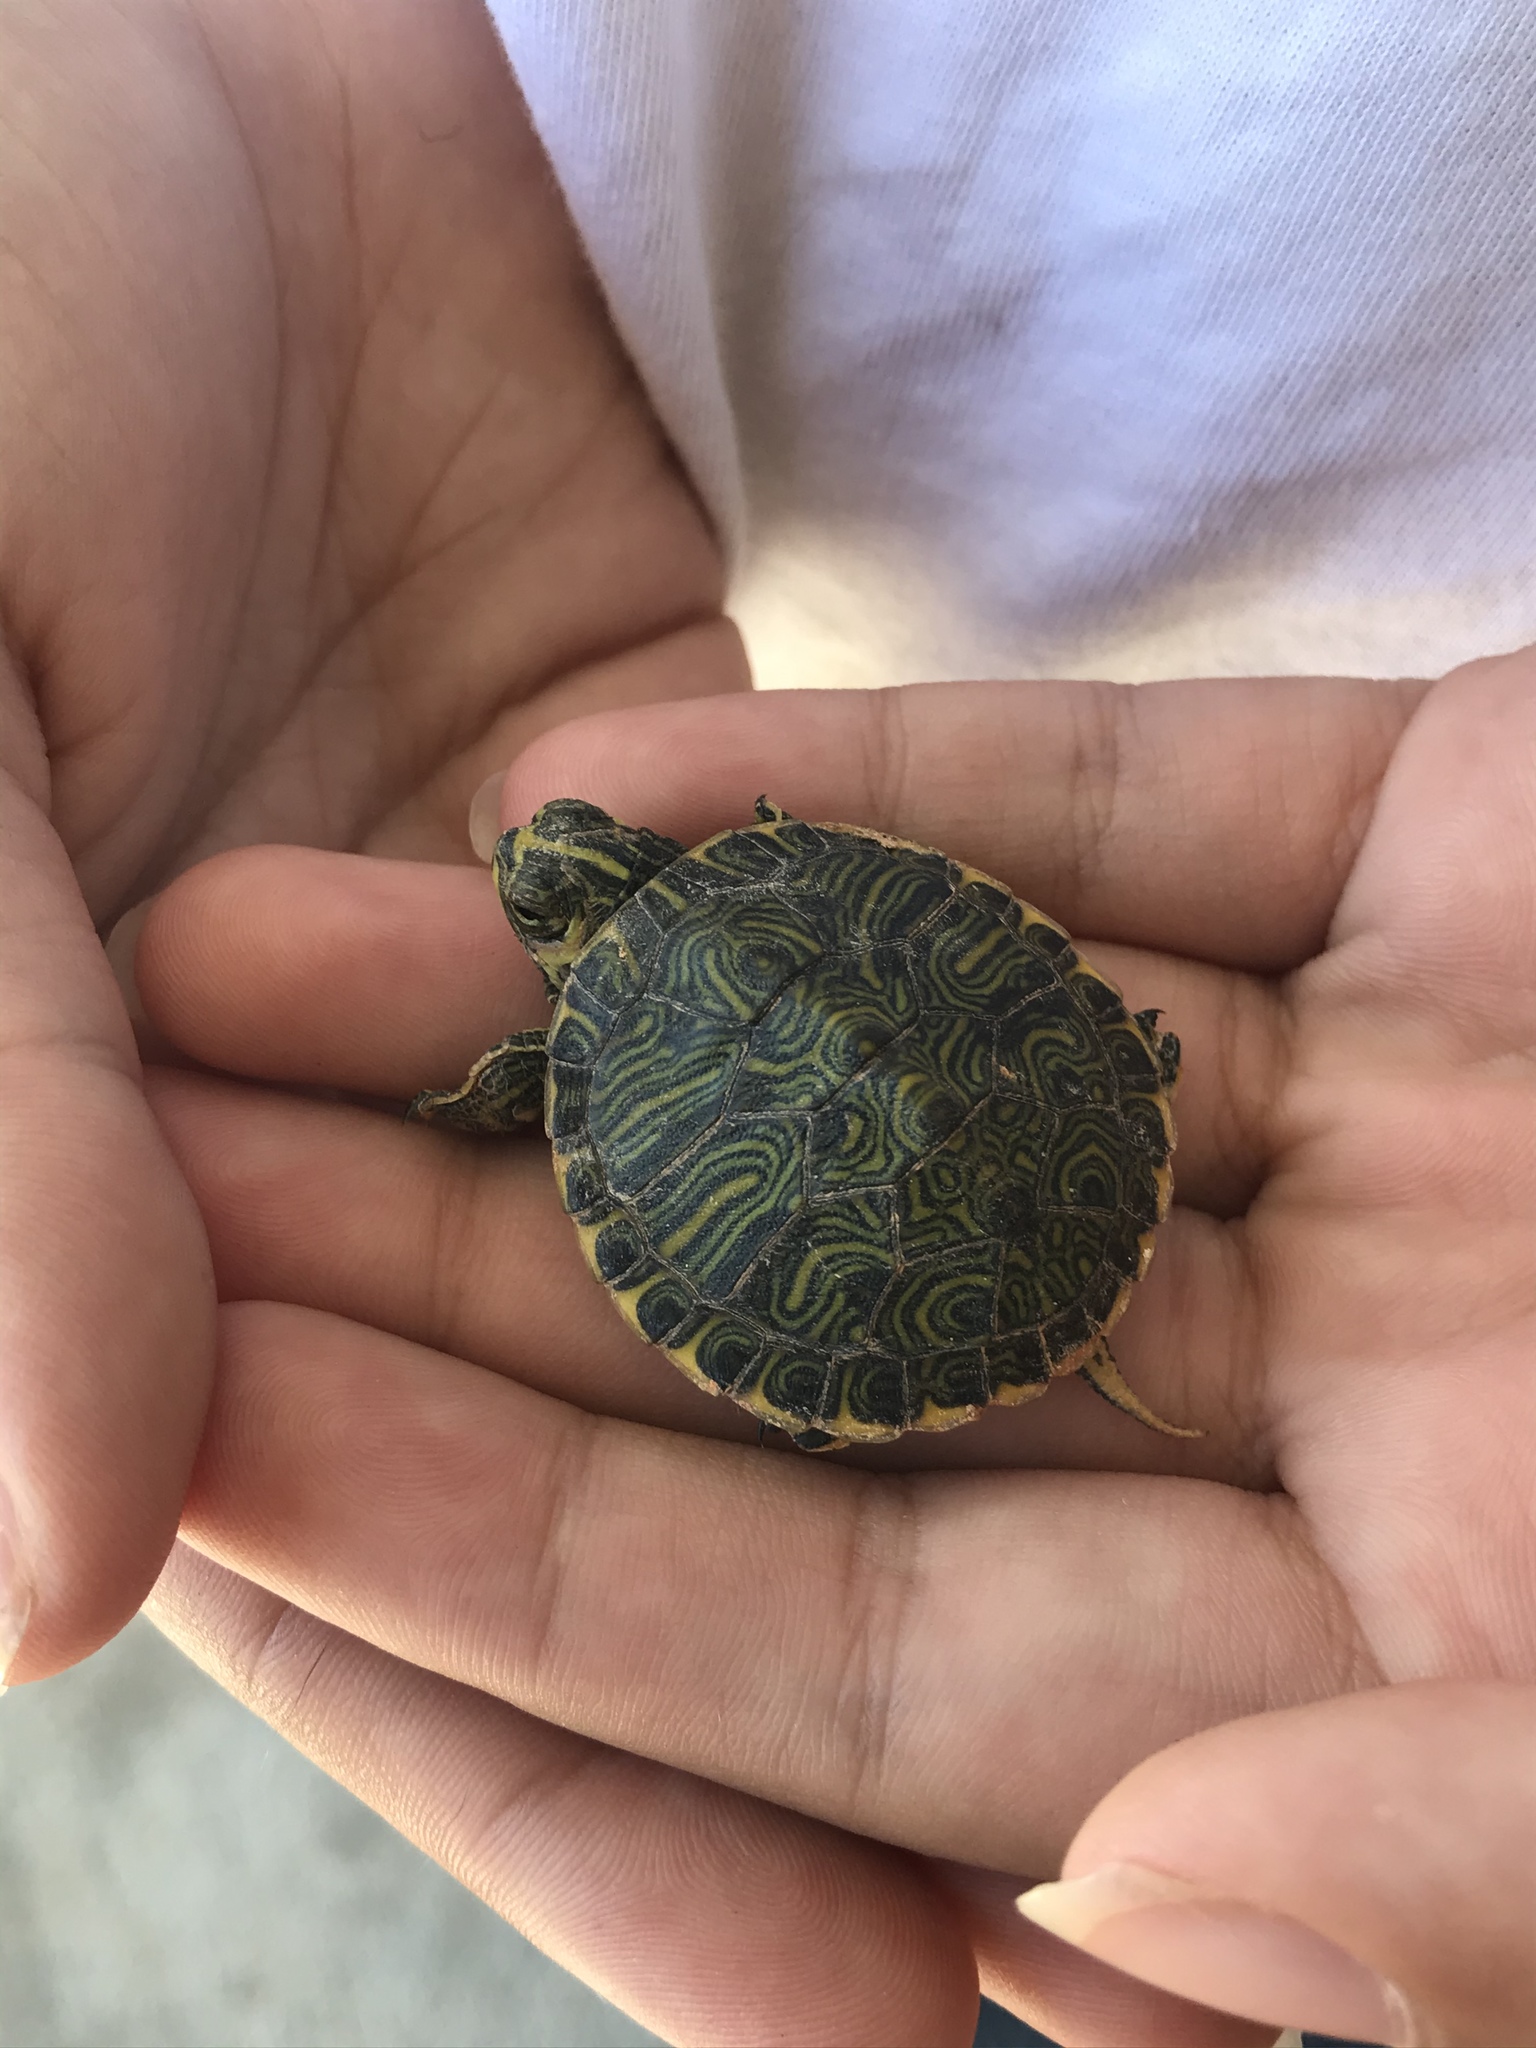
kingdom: Animalia
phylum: Chordata
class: Testudines
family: Emydidae
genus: Trachemys
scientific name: Trachemys scripta
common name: Slider
